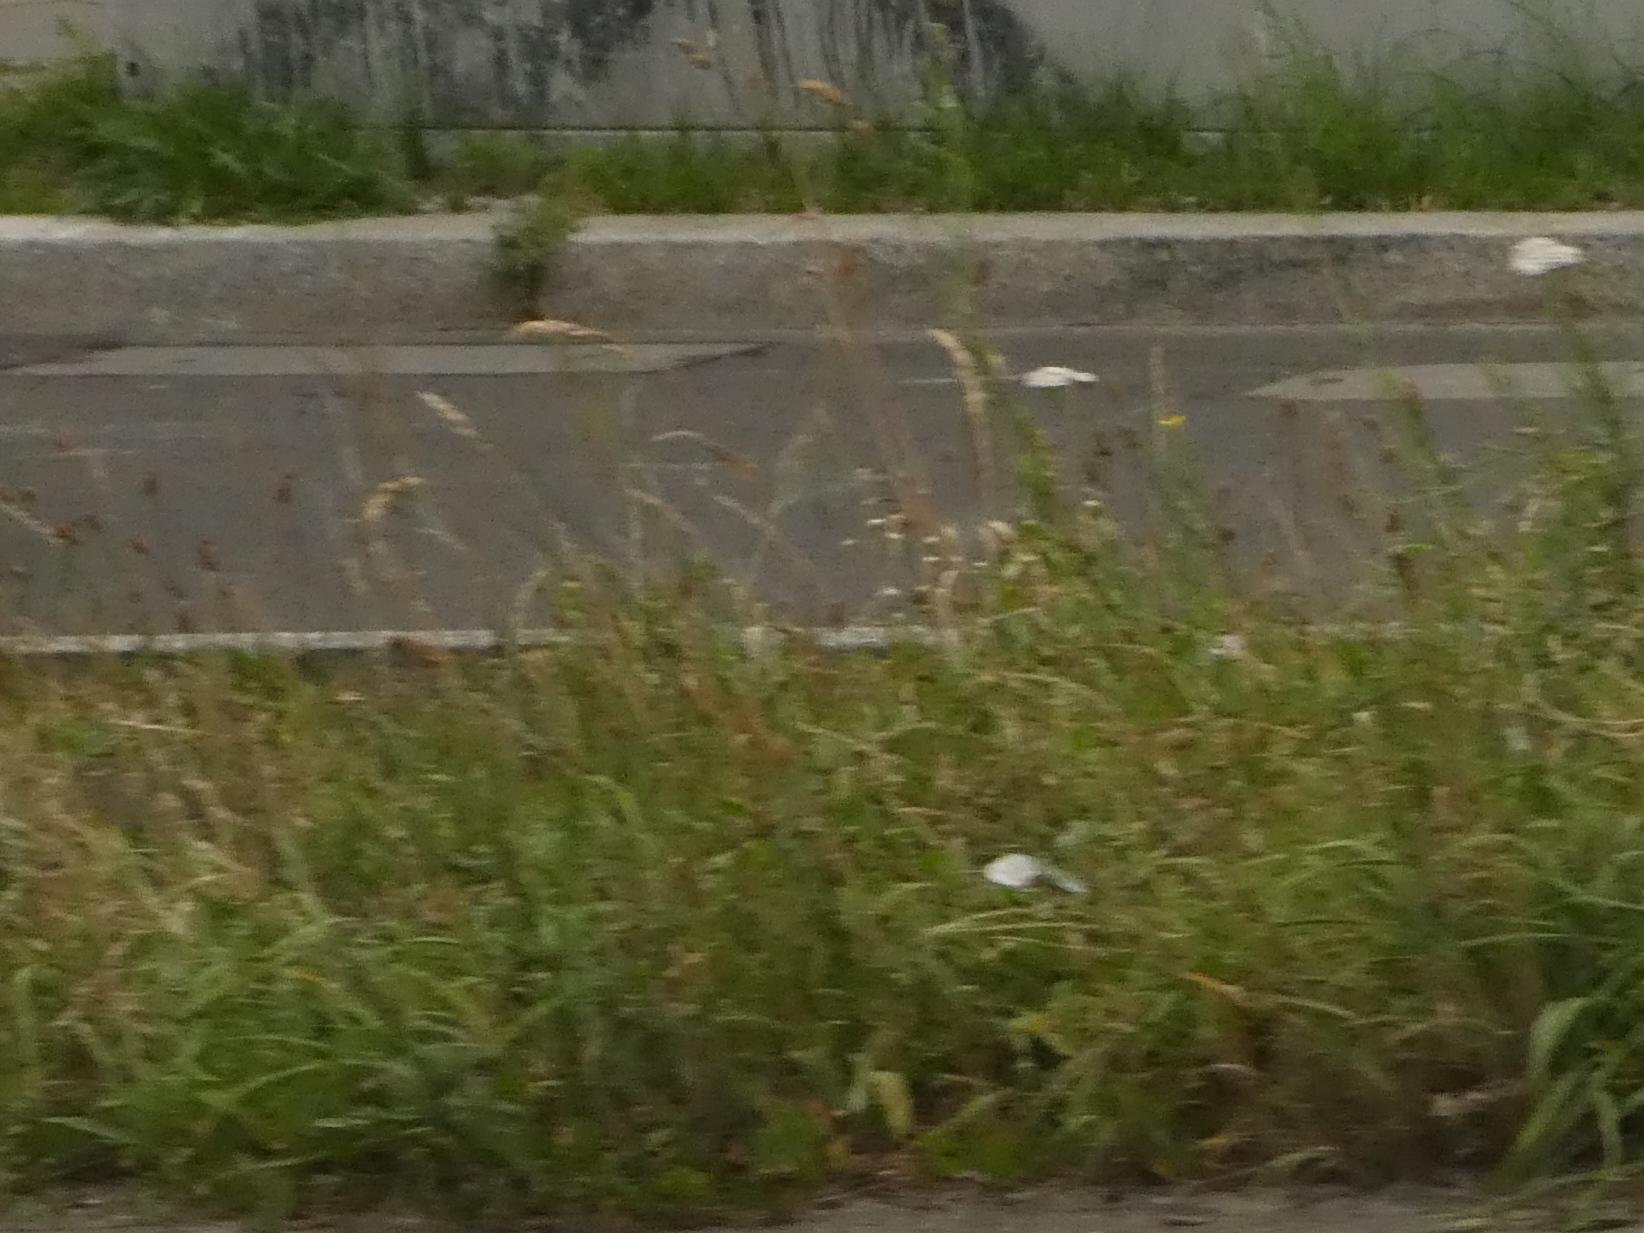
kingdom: Plantae
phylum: Tracheophyta
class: Liliopsida
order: Poales
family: Poaceae
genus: Dactylis
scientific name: Dactylis glomerata
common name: Orchardgrass
